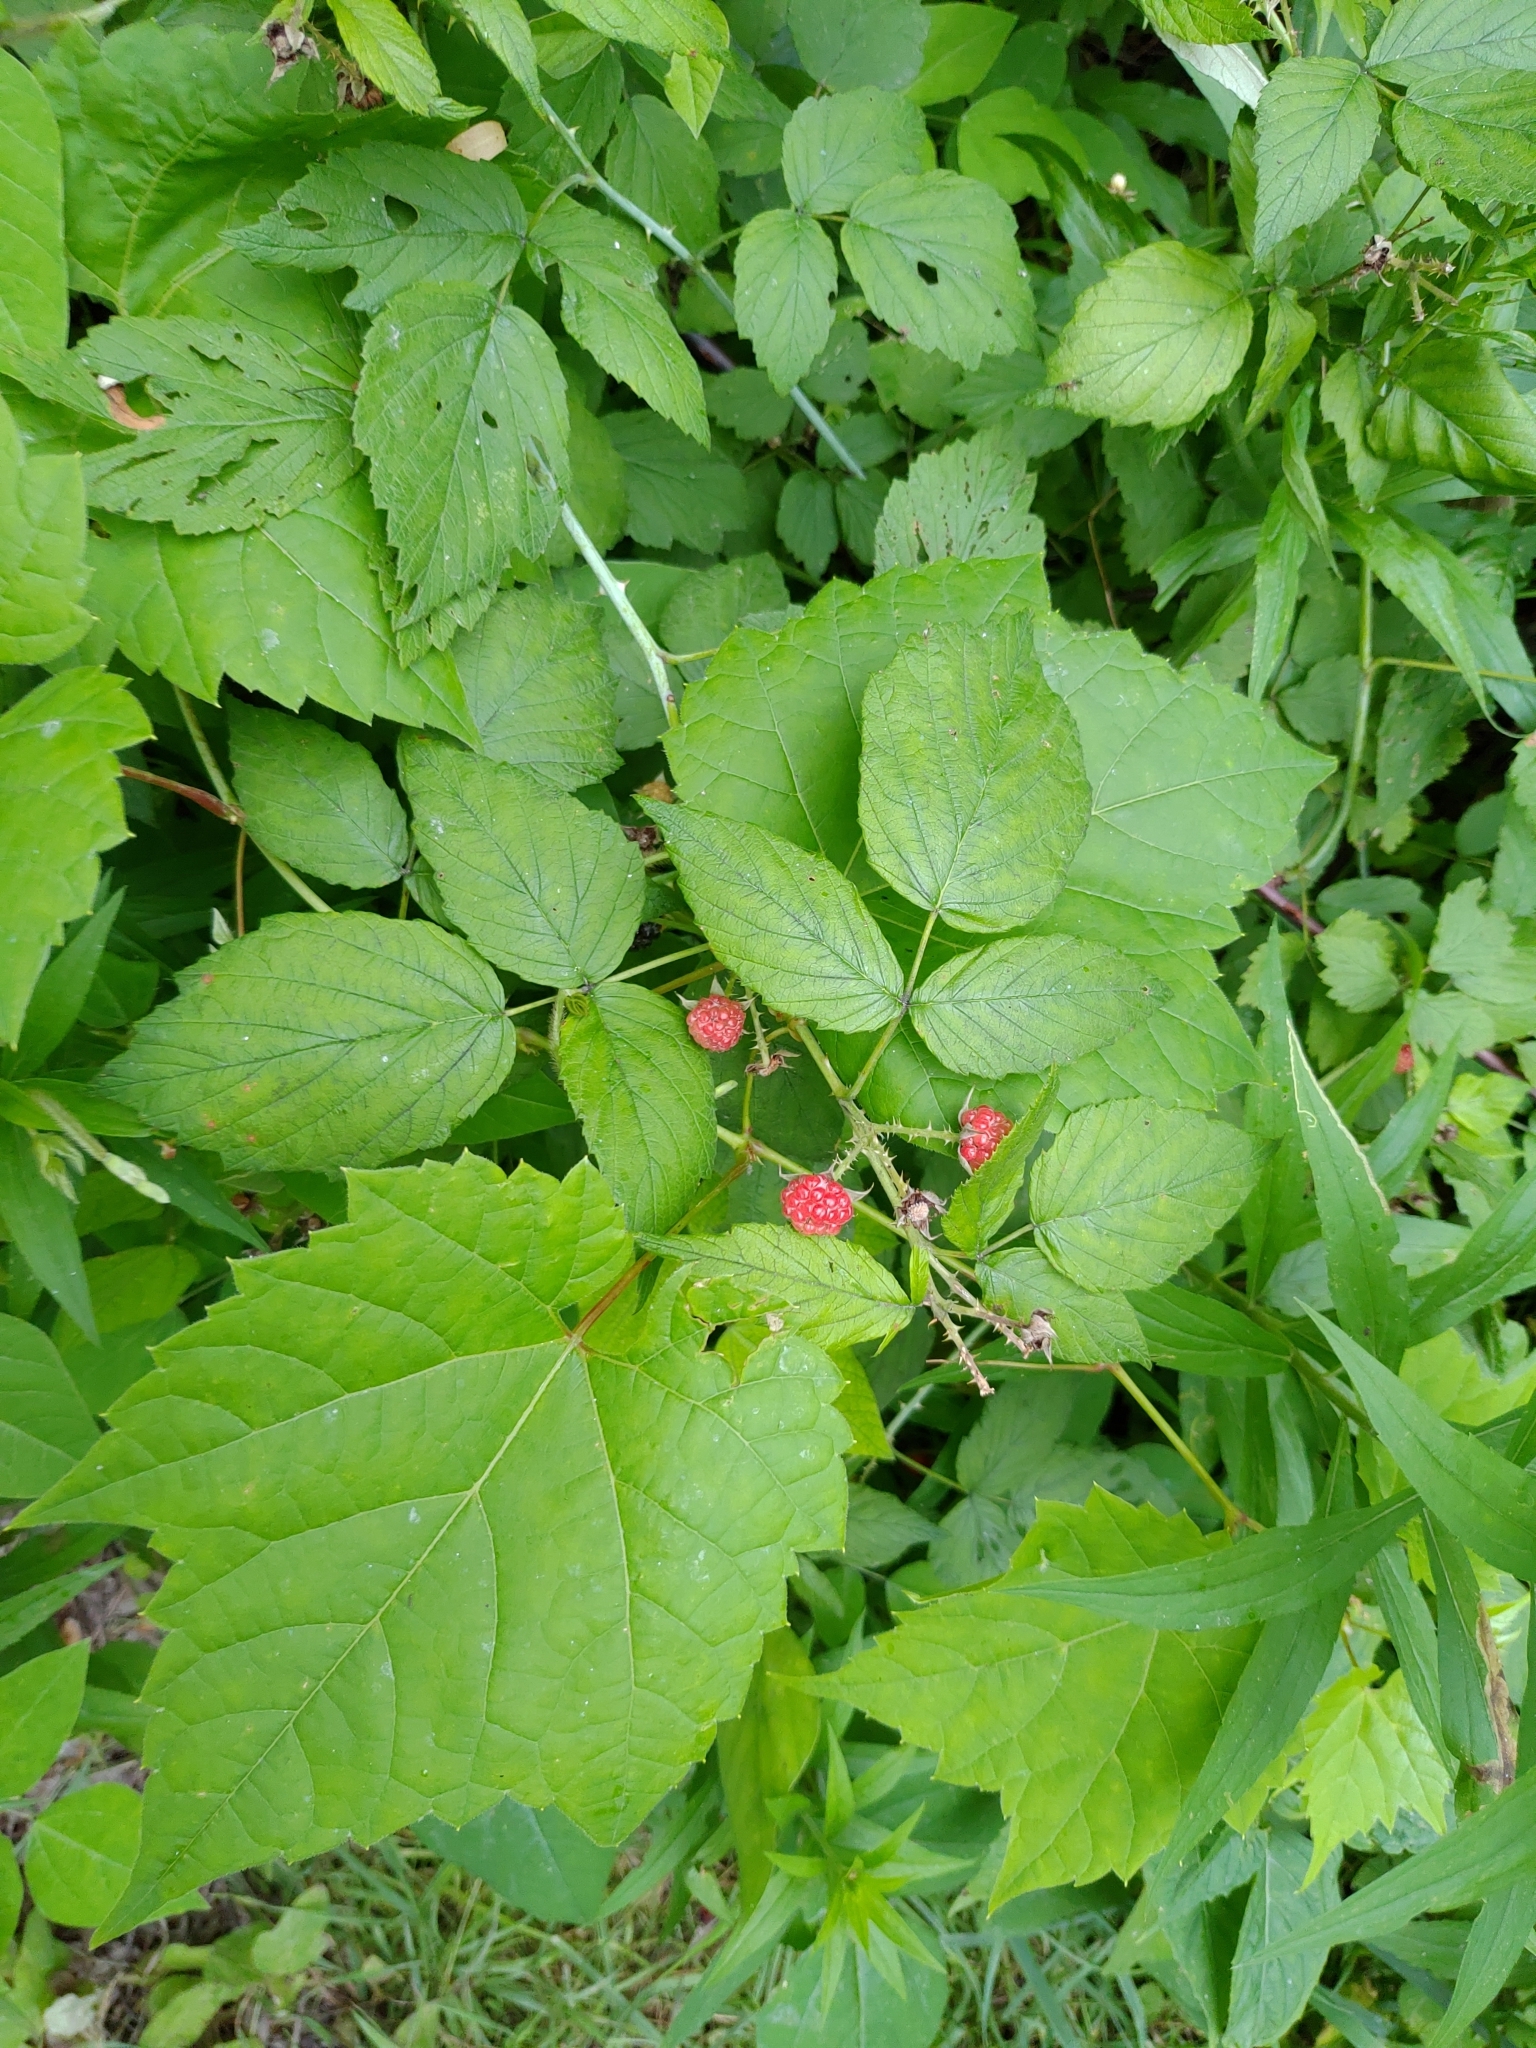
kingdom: Plantae
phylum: Tracheophyta
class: Magnoliopsida
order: Rosales
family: Rosaceae
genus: Rubus
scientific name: Rubus occidentalis
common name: Black raspberry
